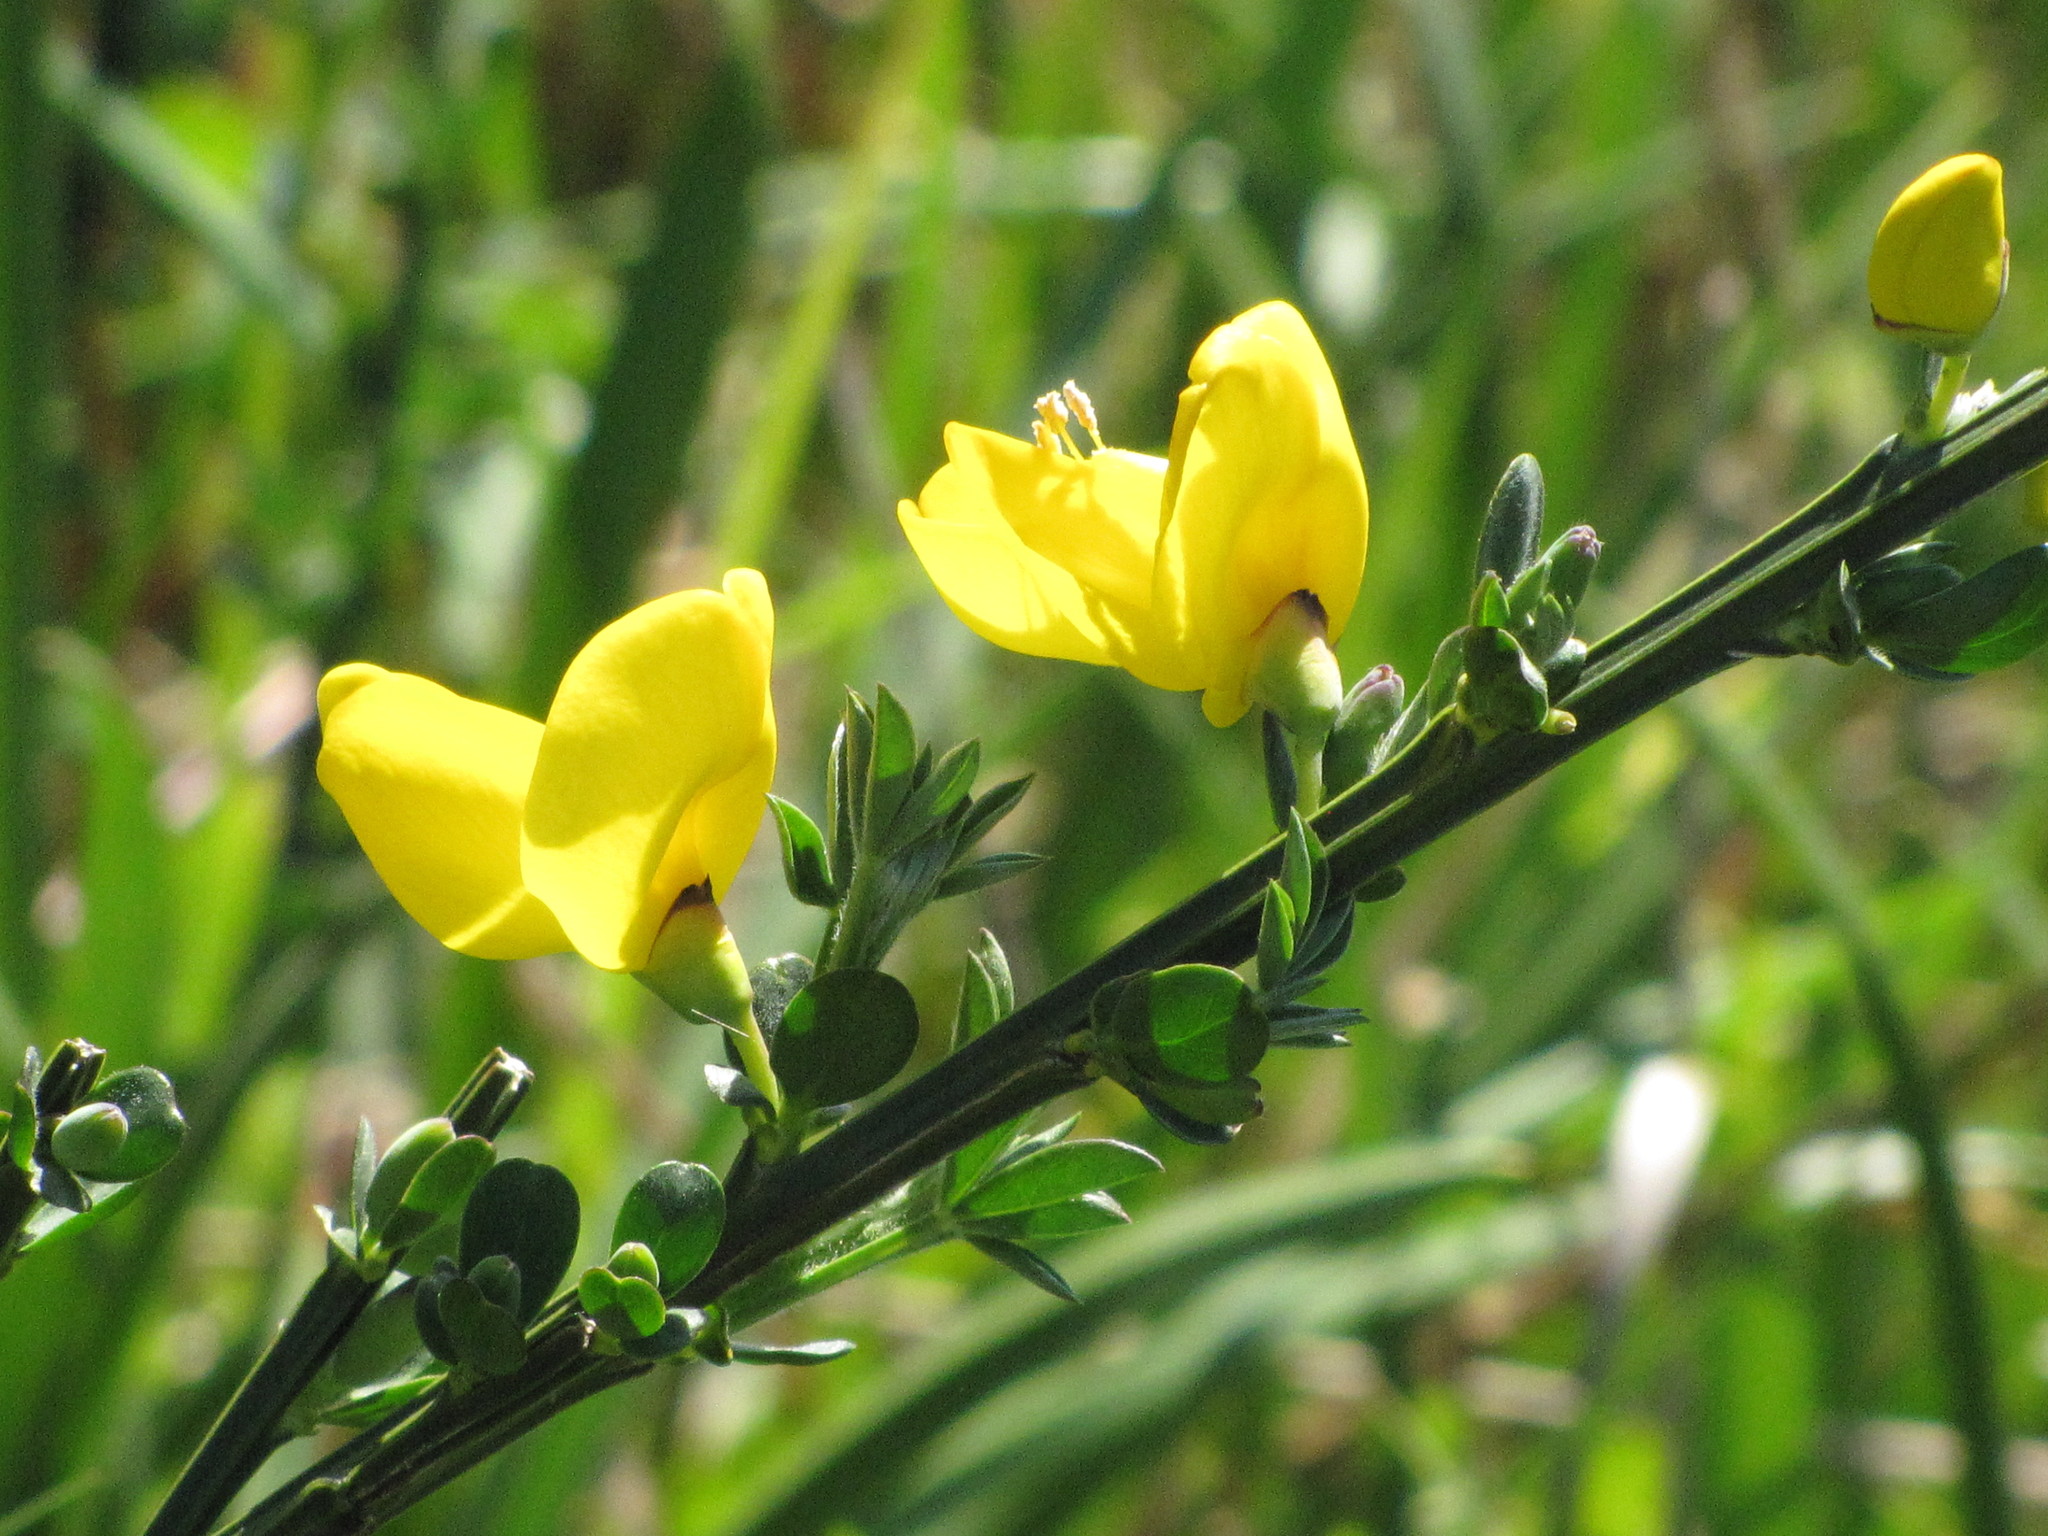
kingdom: Plantae
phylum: Tracheophyta
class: Magnoliopsida
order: Fabales
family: Fabaceae
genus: Cytisus
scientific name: Cytisus scoparius
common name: Scotch broom
